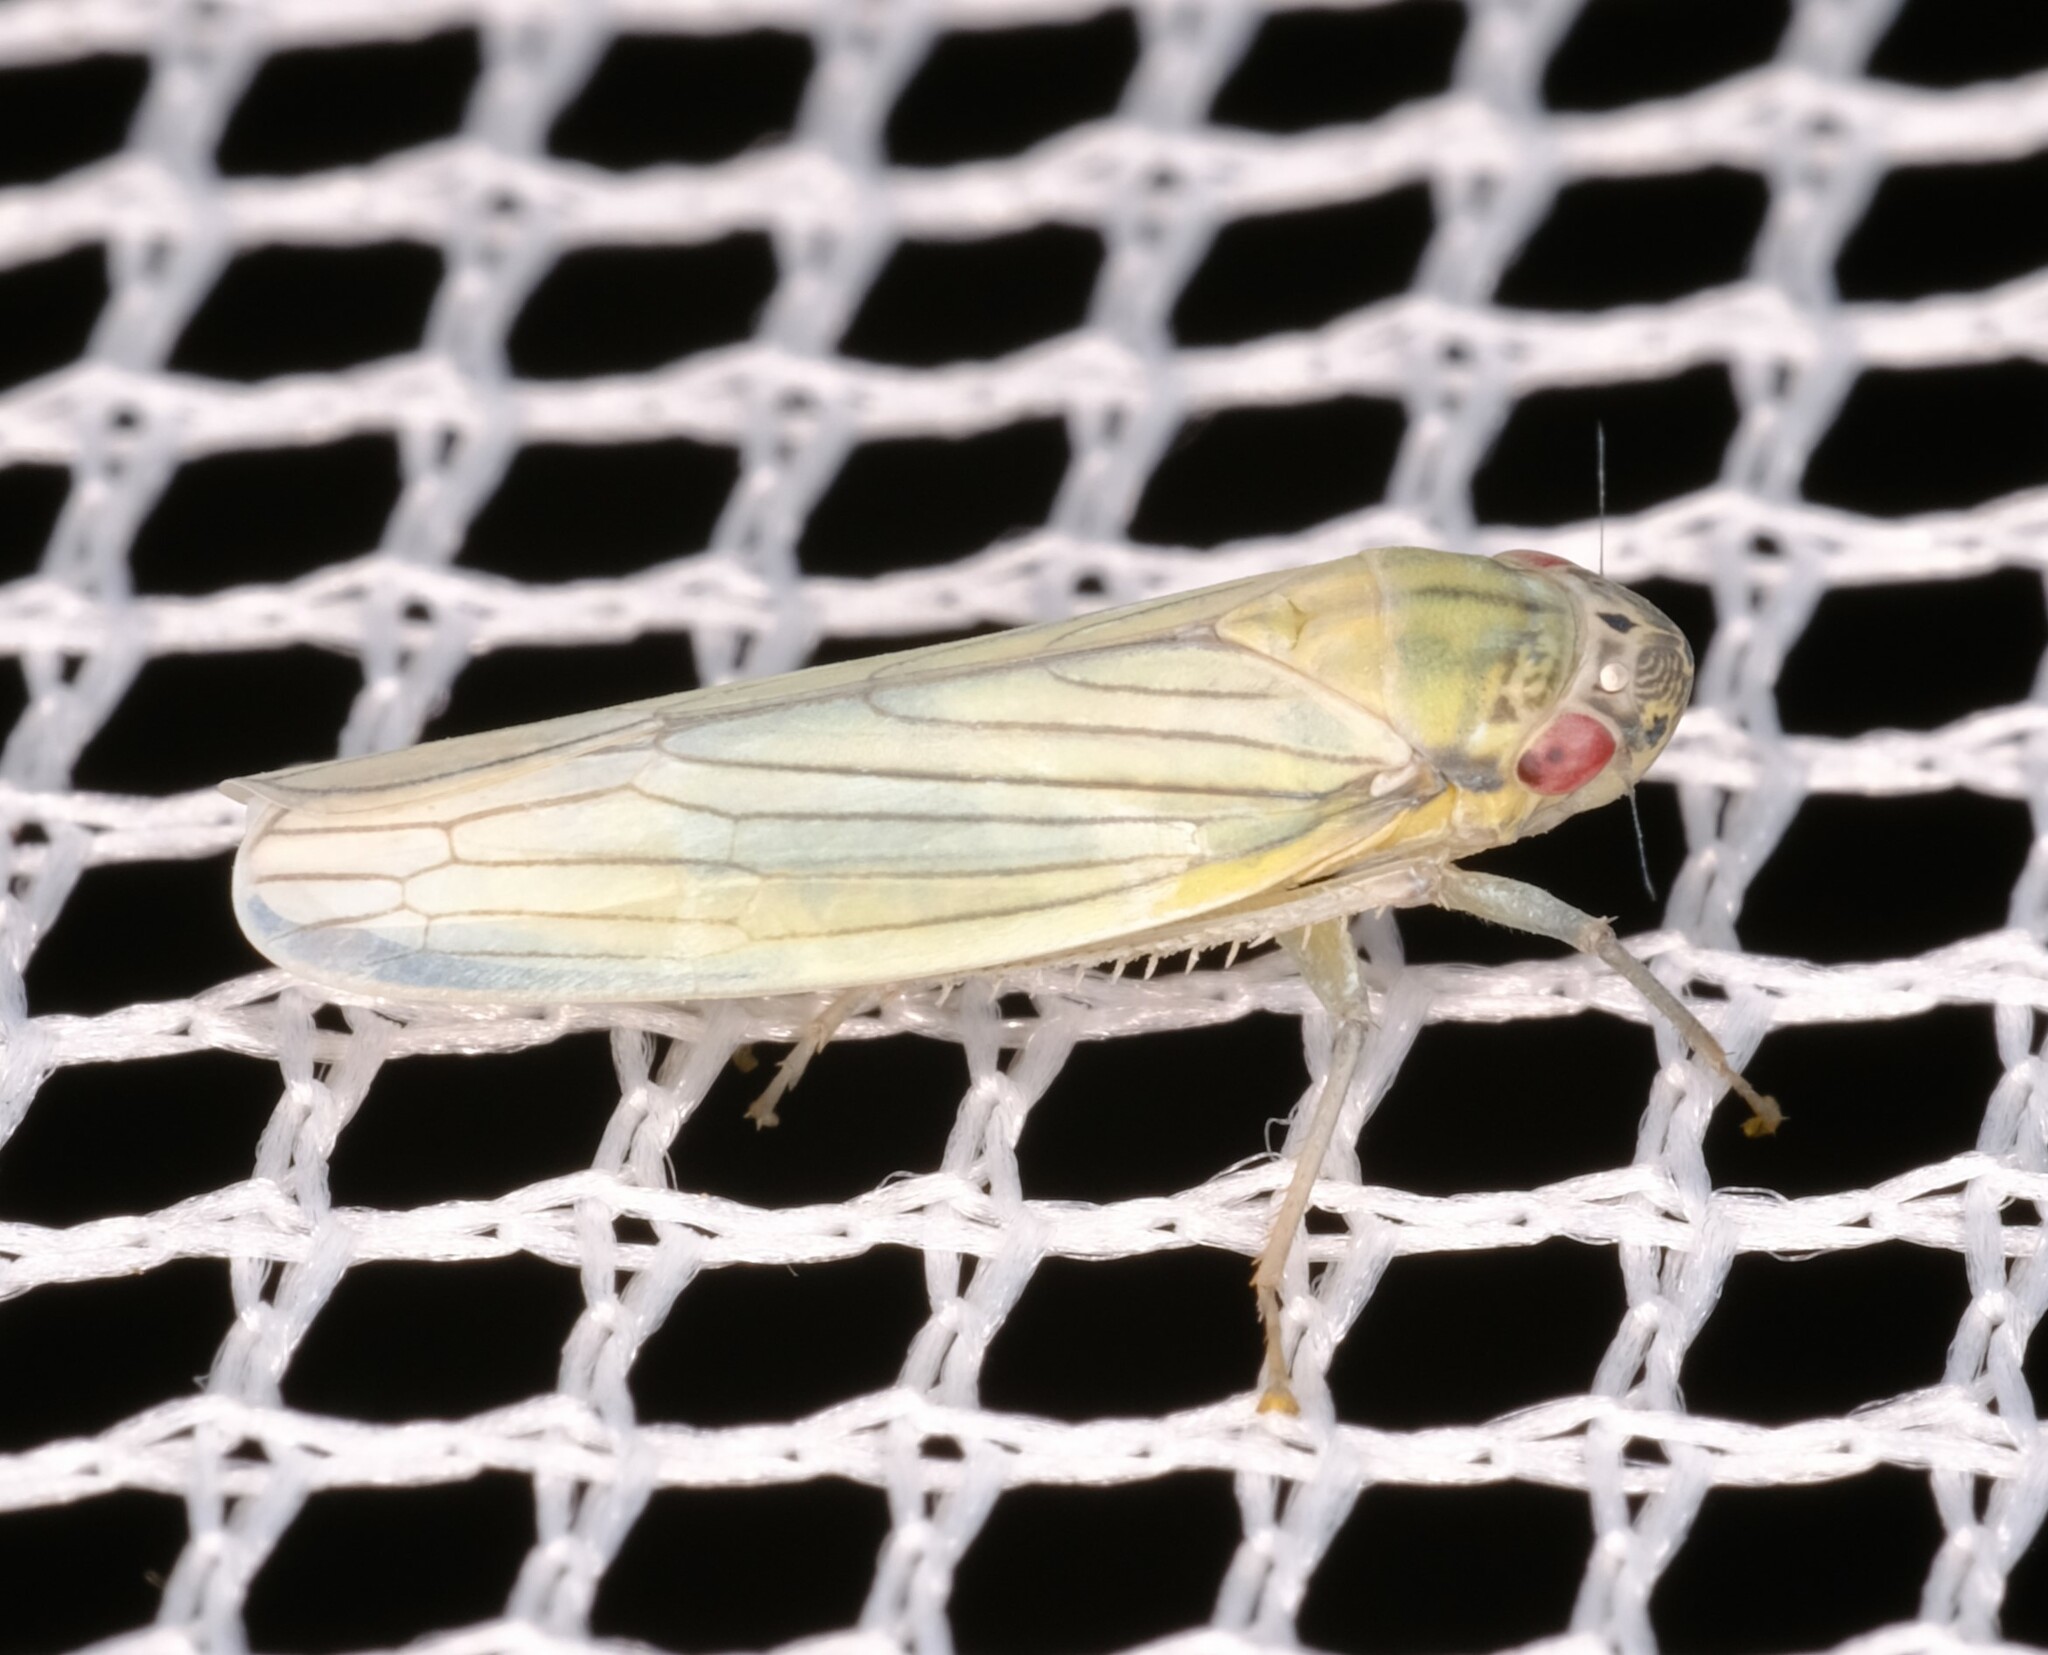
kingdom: Animalia
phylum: Arthropoda
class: Insecta
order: Hemiptera
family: Cicadellidae
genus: Cofana
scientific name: Cofana spectra
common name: White leafhopper
